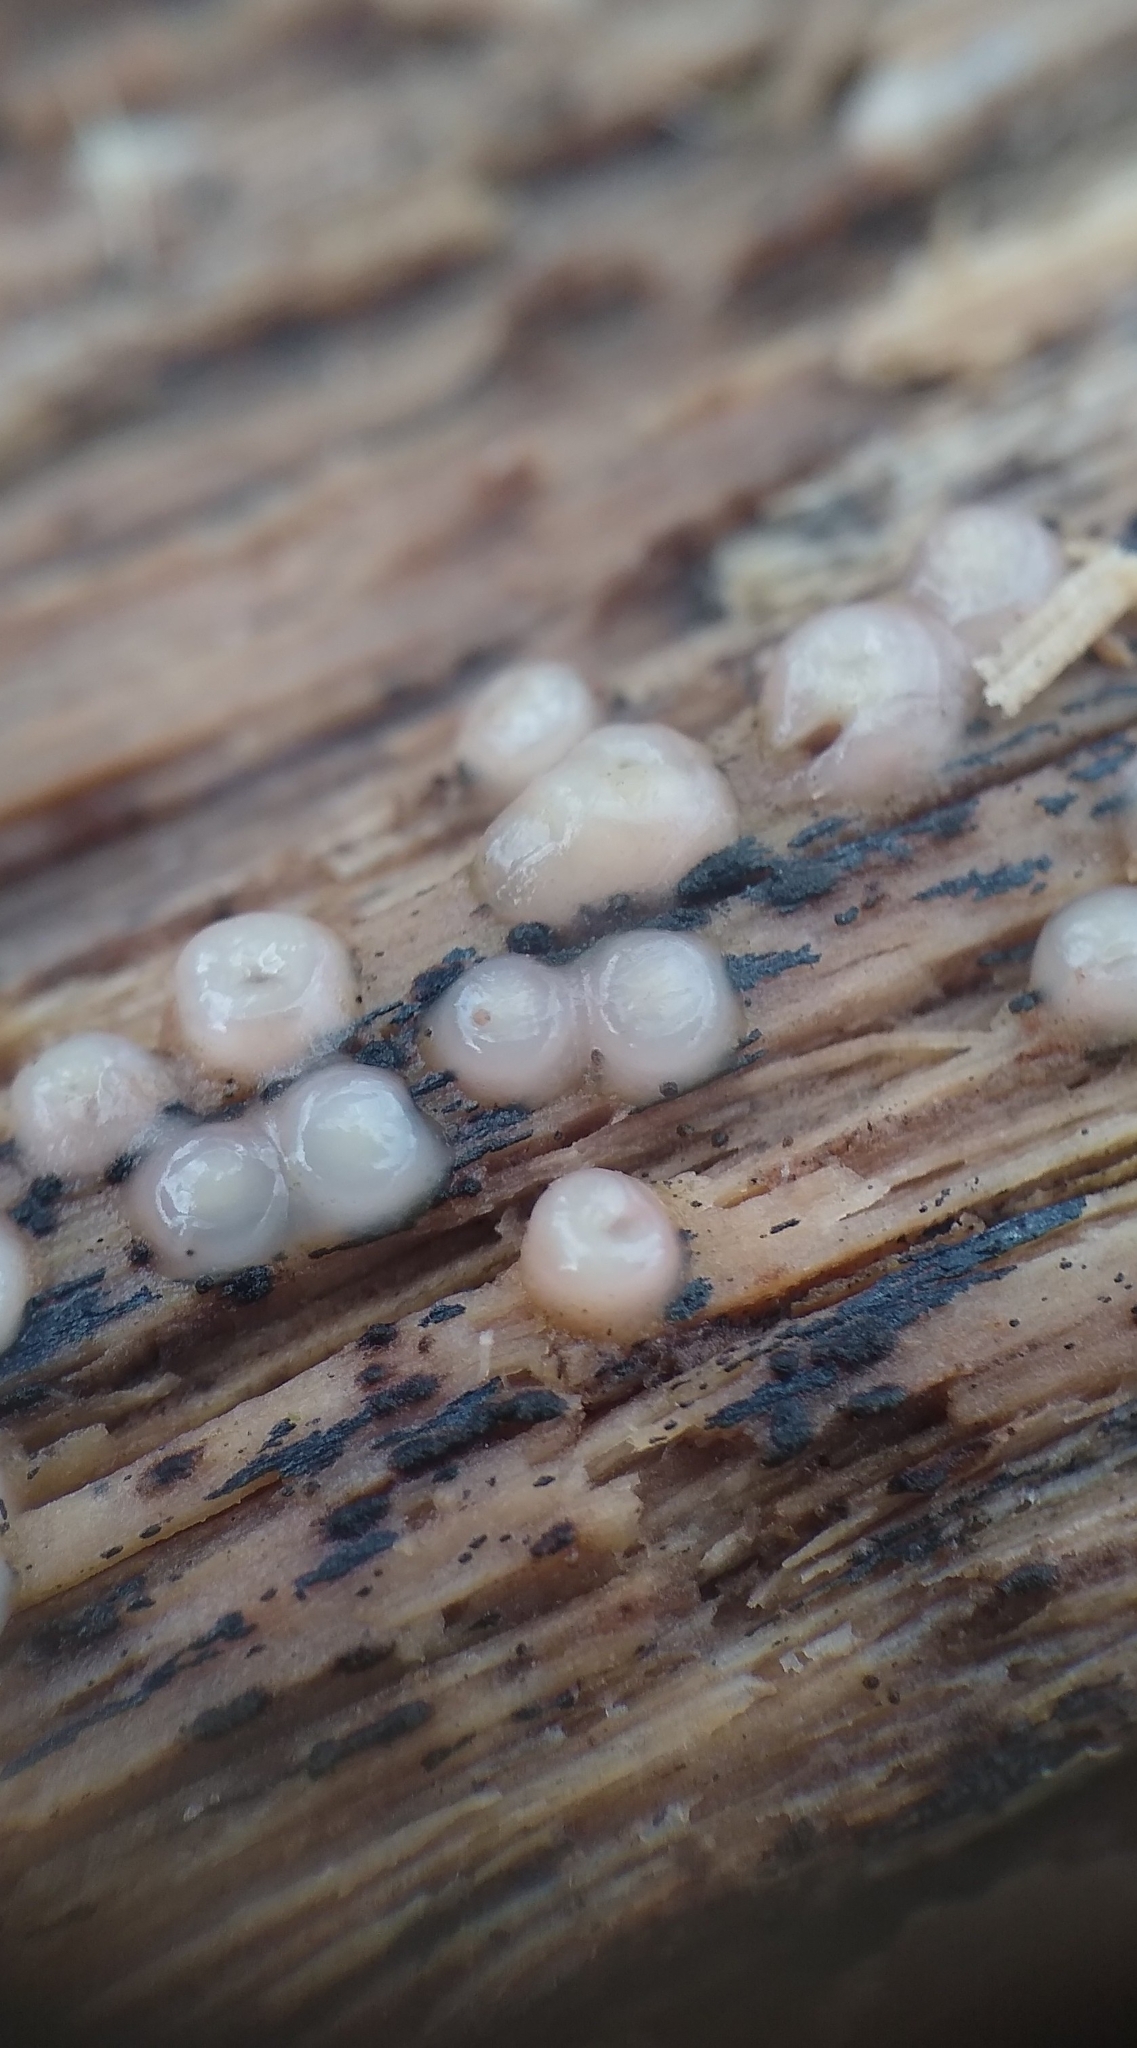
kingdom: Fungi
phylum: Basidiomycota
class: Atractiellomycetes
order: Atractiellales
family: Phleogenaceae
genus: Helicogloea
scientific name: Helicogloea compressa
